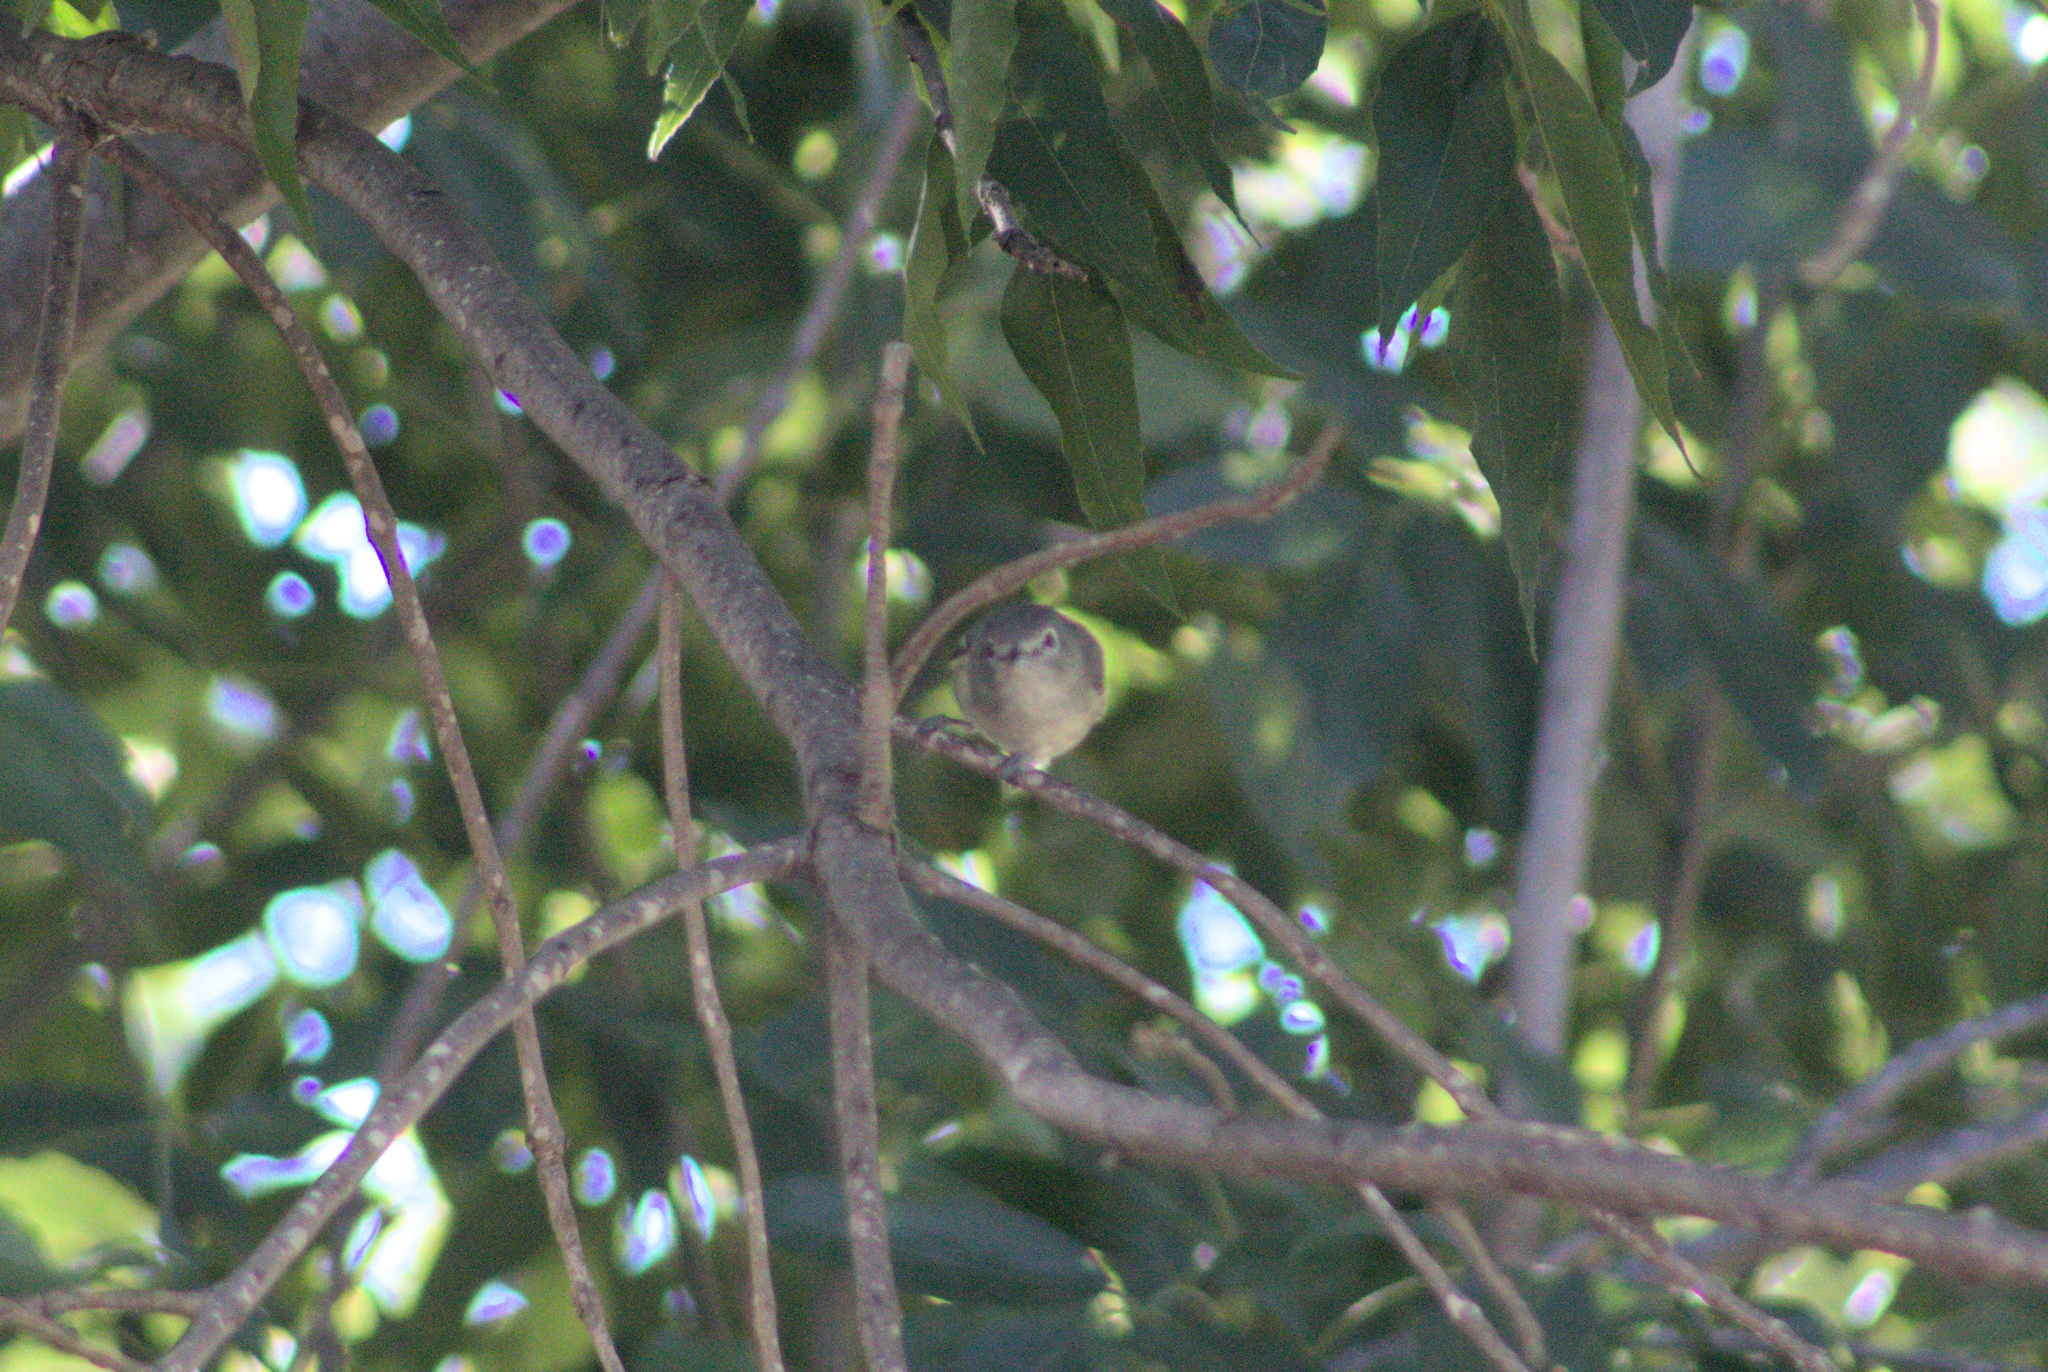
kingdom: Animalia
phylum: Chordata
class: Aves
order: Passeriformes
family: Vireonidae
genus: Vireo
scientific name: Vireo plumbeus
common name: Plumbeous vireo
